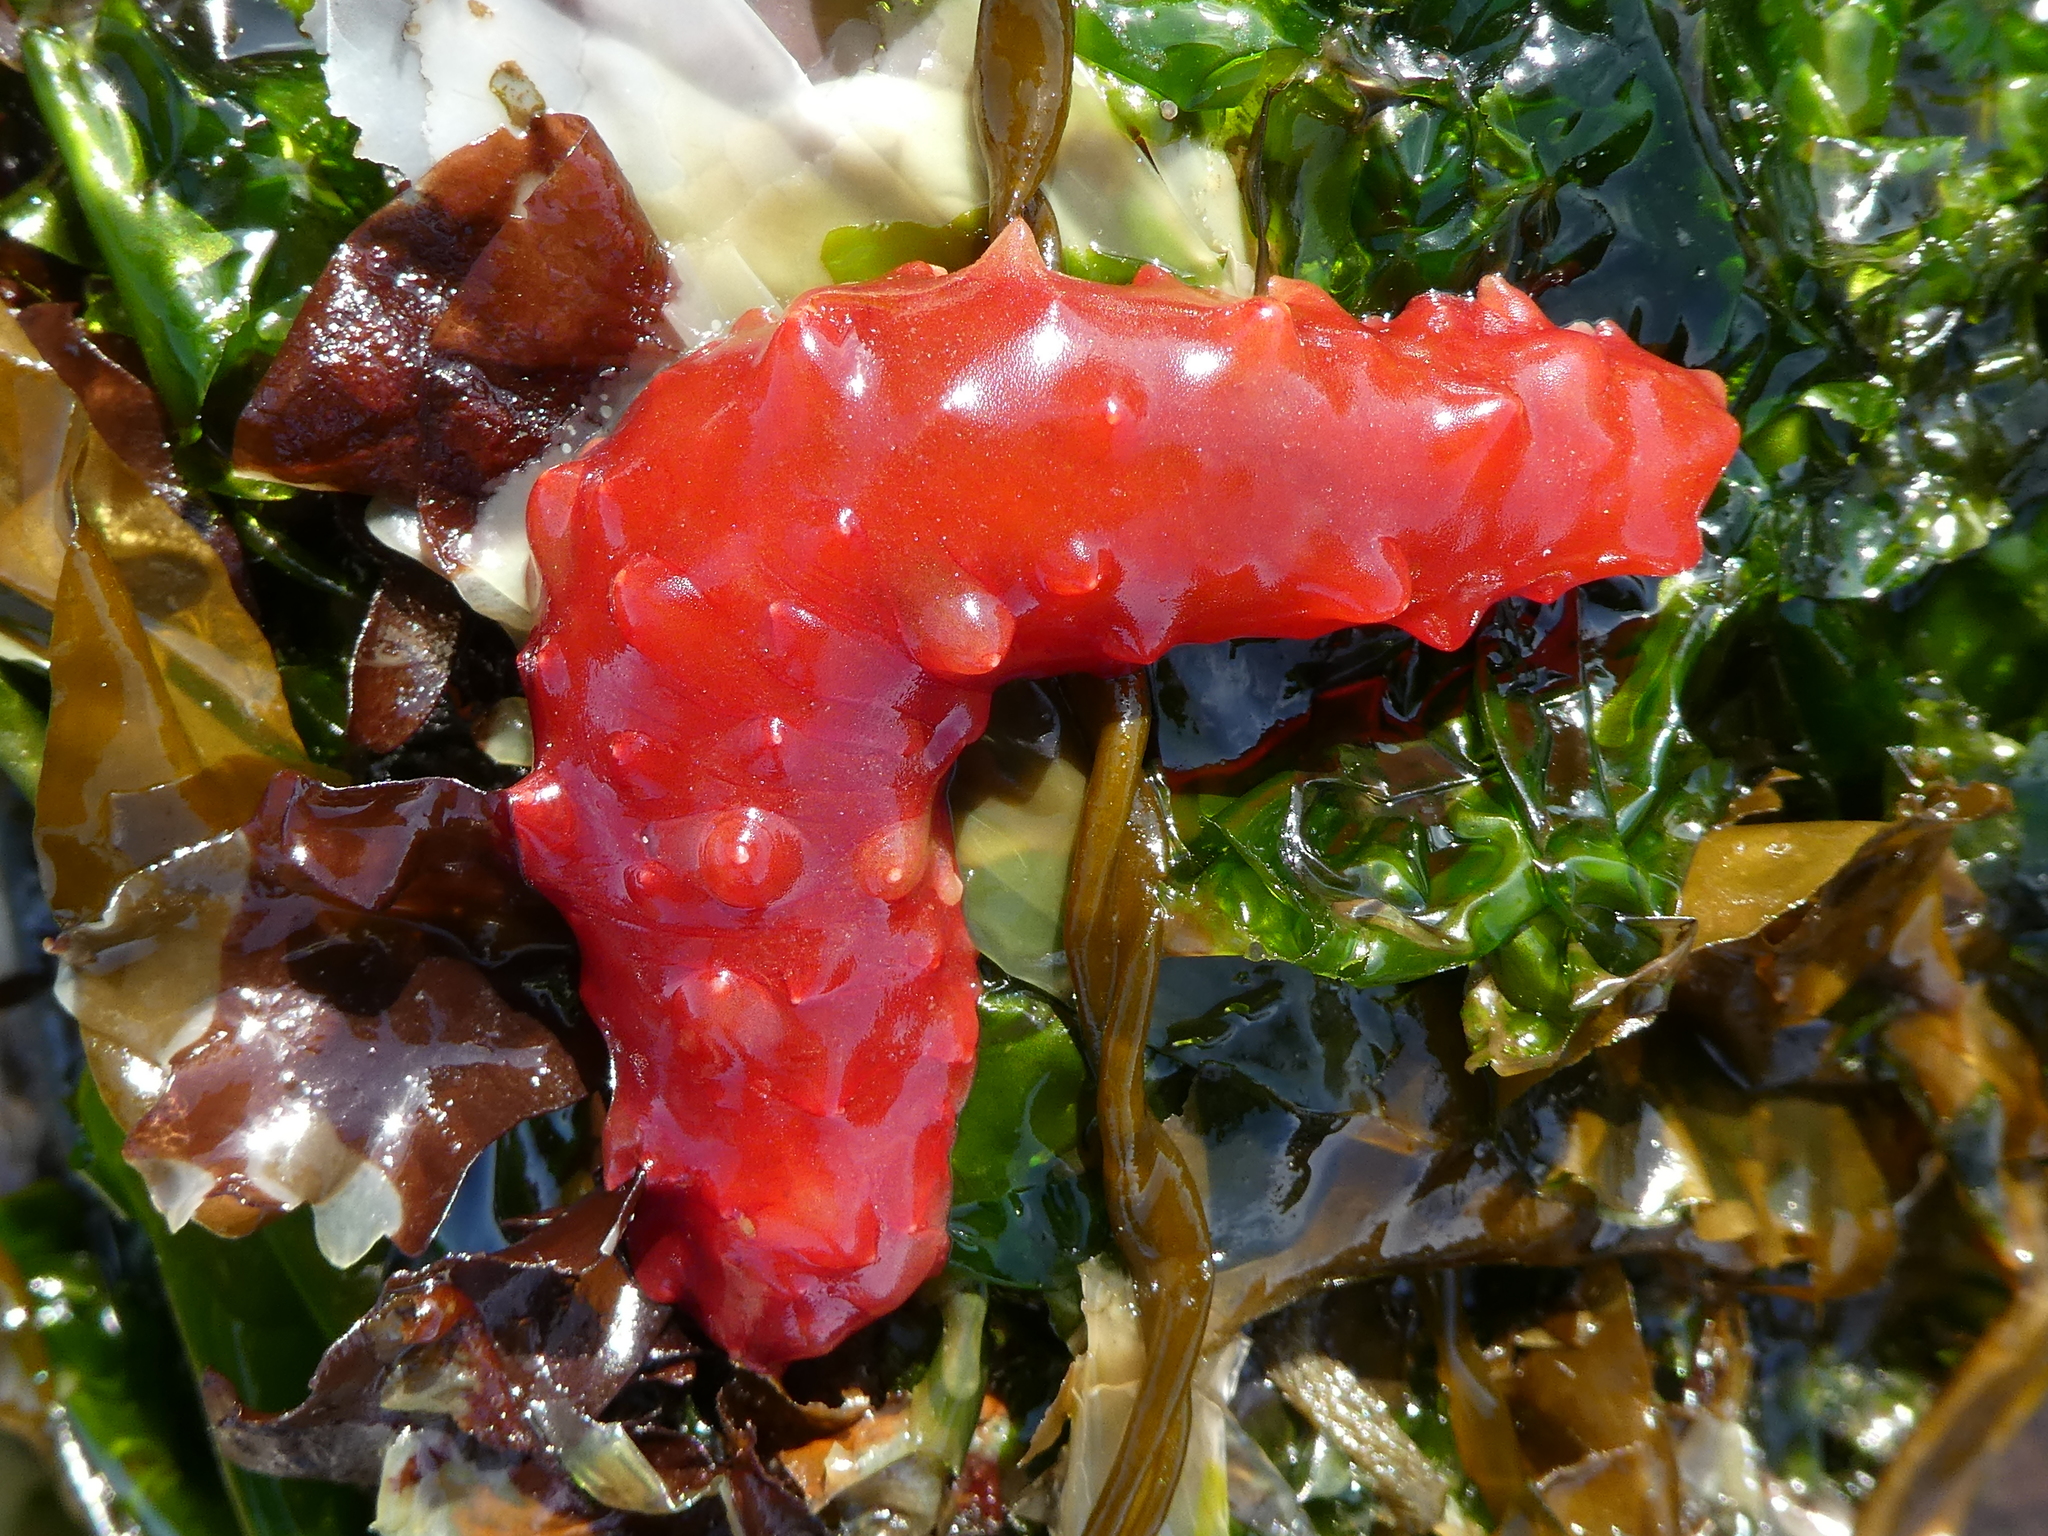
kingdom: Animalia
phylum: Echinodermata
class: Holothuroidea
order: Synallactida
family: Stichopodidae
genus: Apostichopus
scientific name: Apostichopus californicus
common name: California sea cucumber
